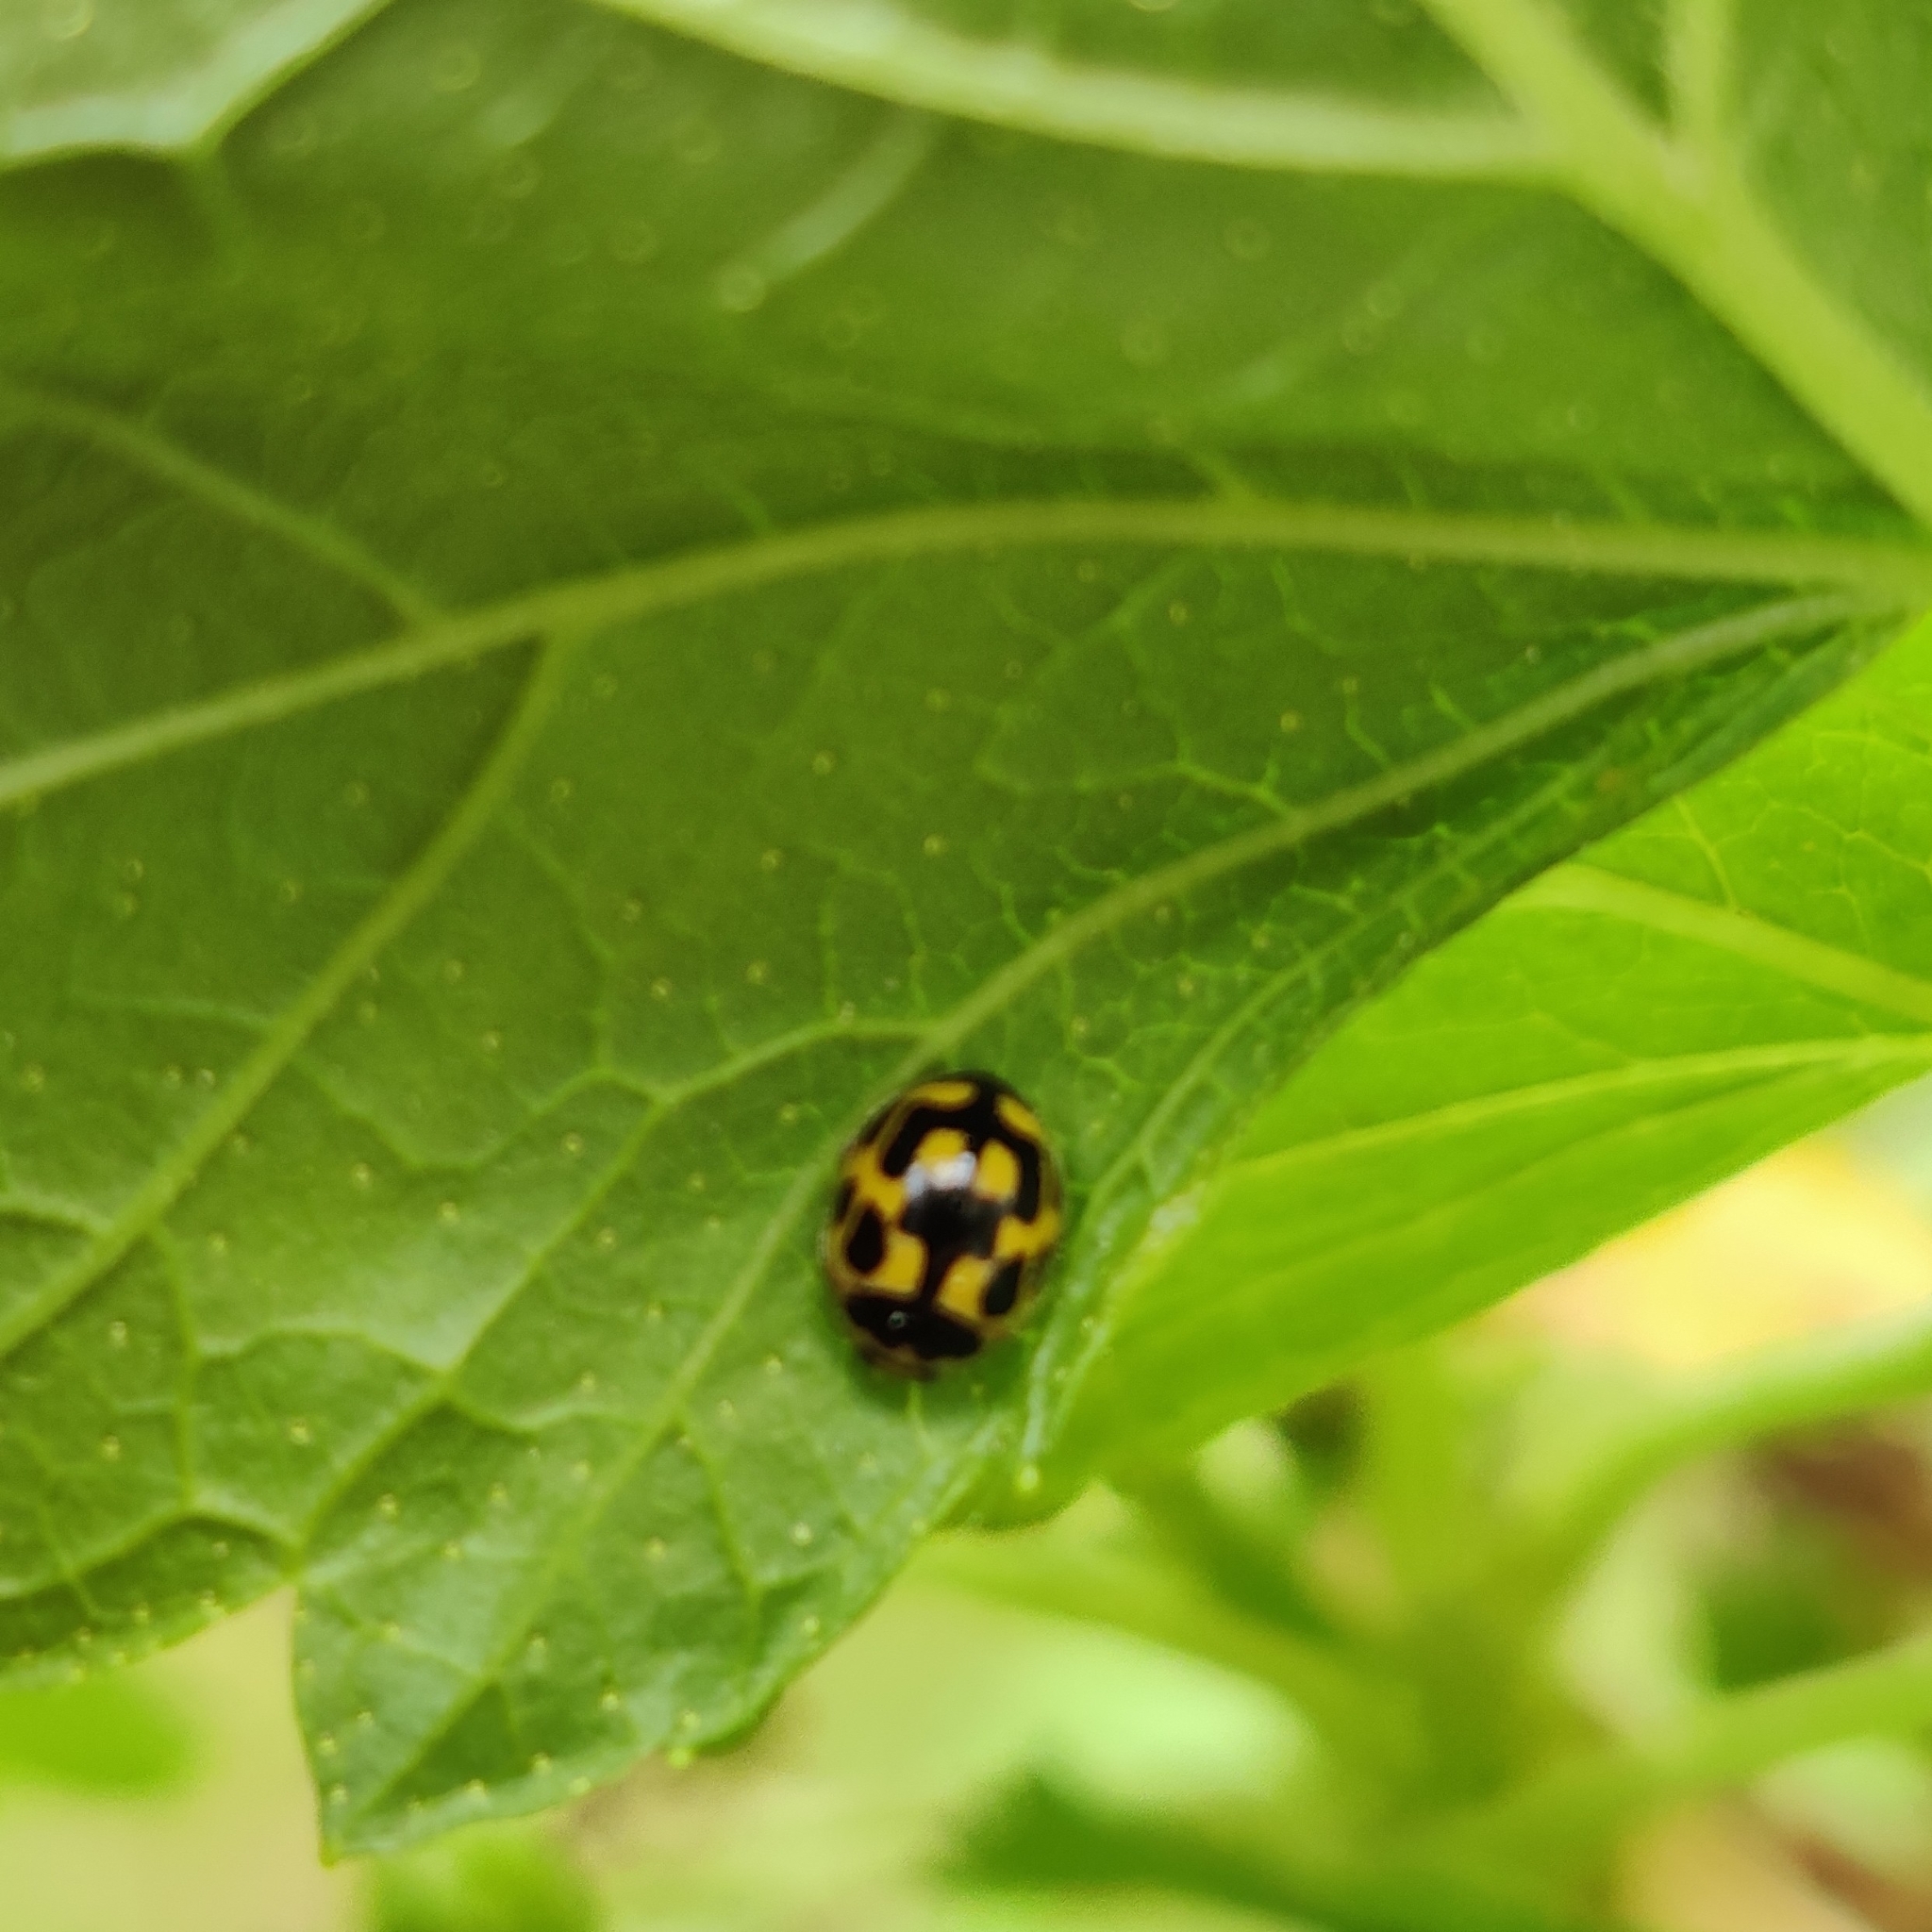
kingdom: Animalia
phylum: Arthropoda
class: Insecta
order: Coleoptera
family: Coccinellidae
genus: Propylaea
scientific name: Propylaea quatuordecimpunctata
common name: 14-spotted ladybird beetle
